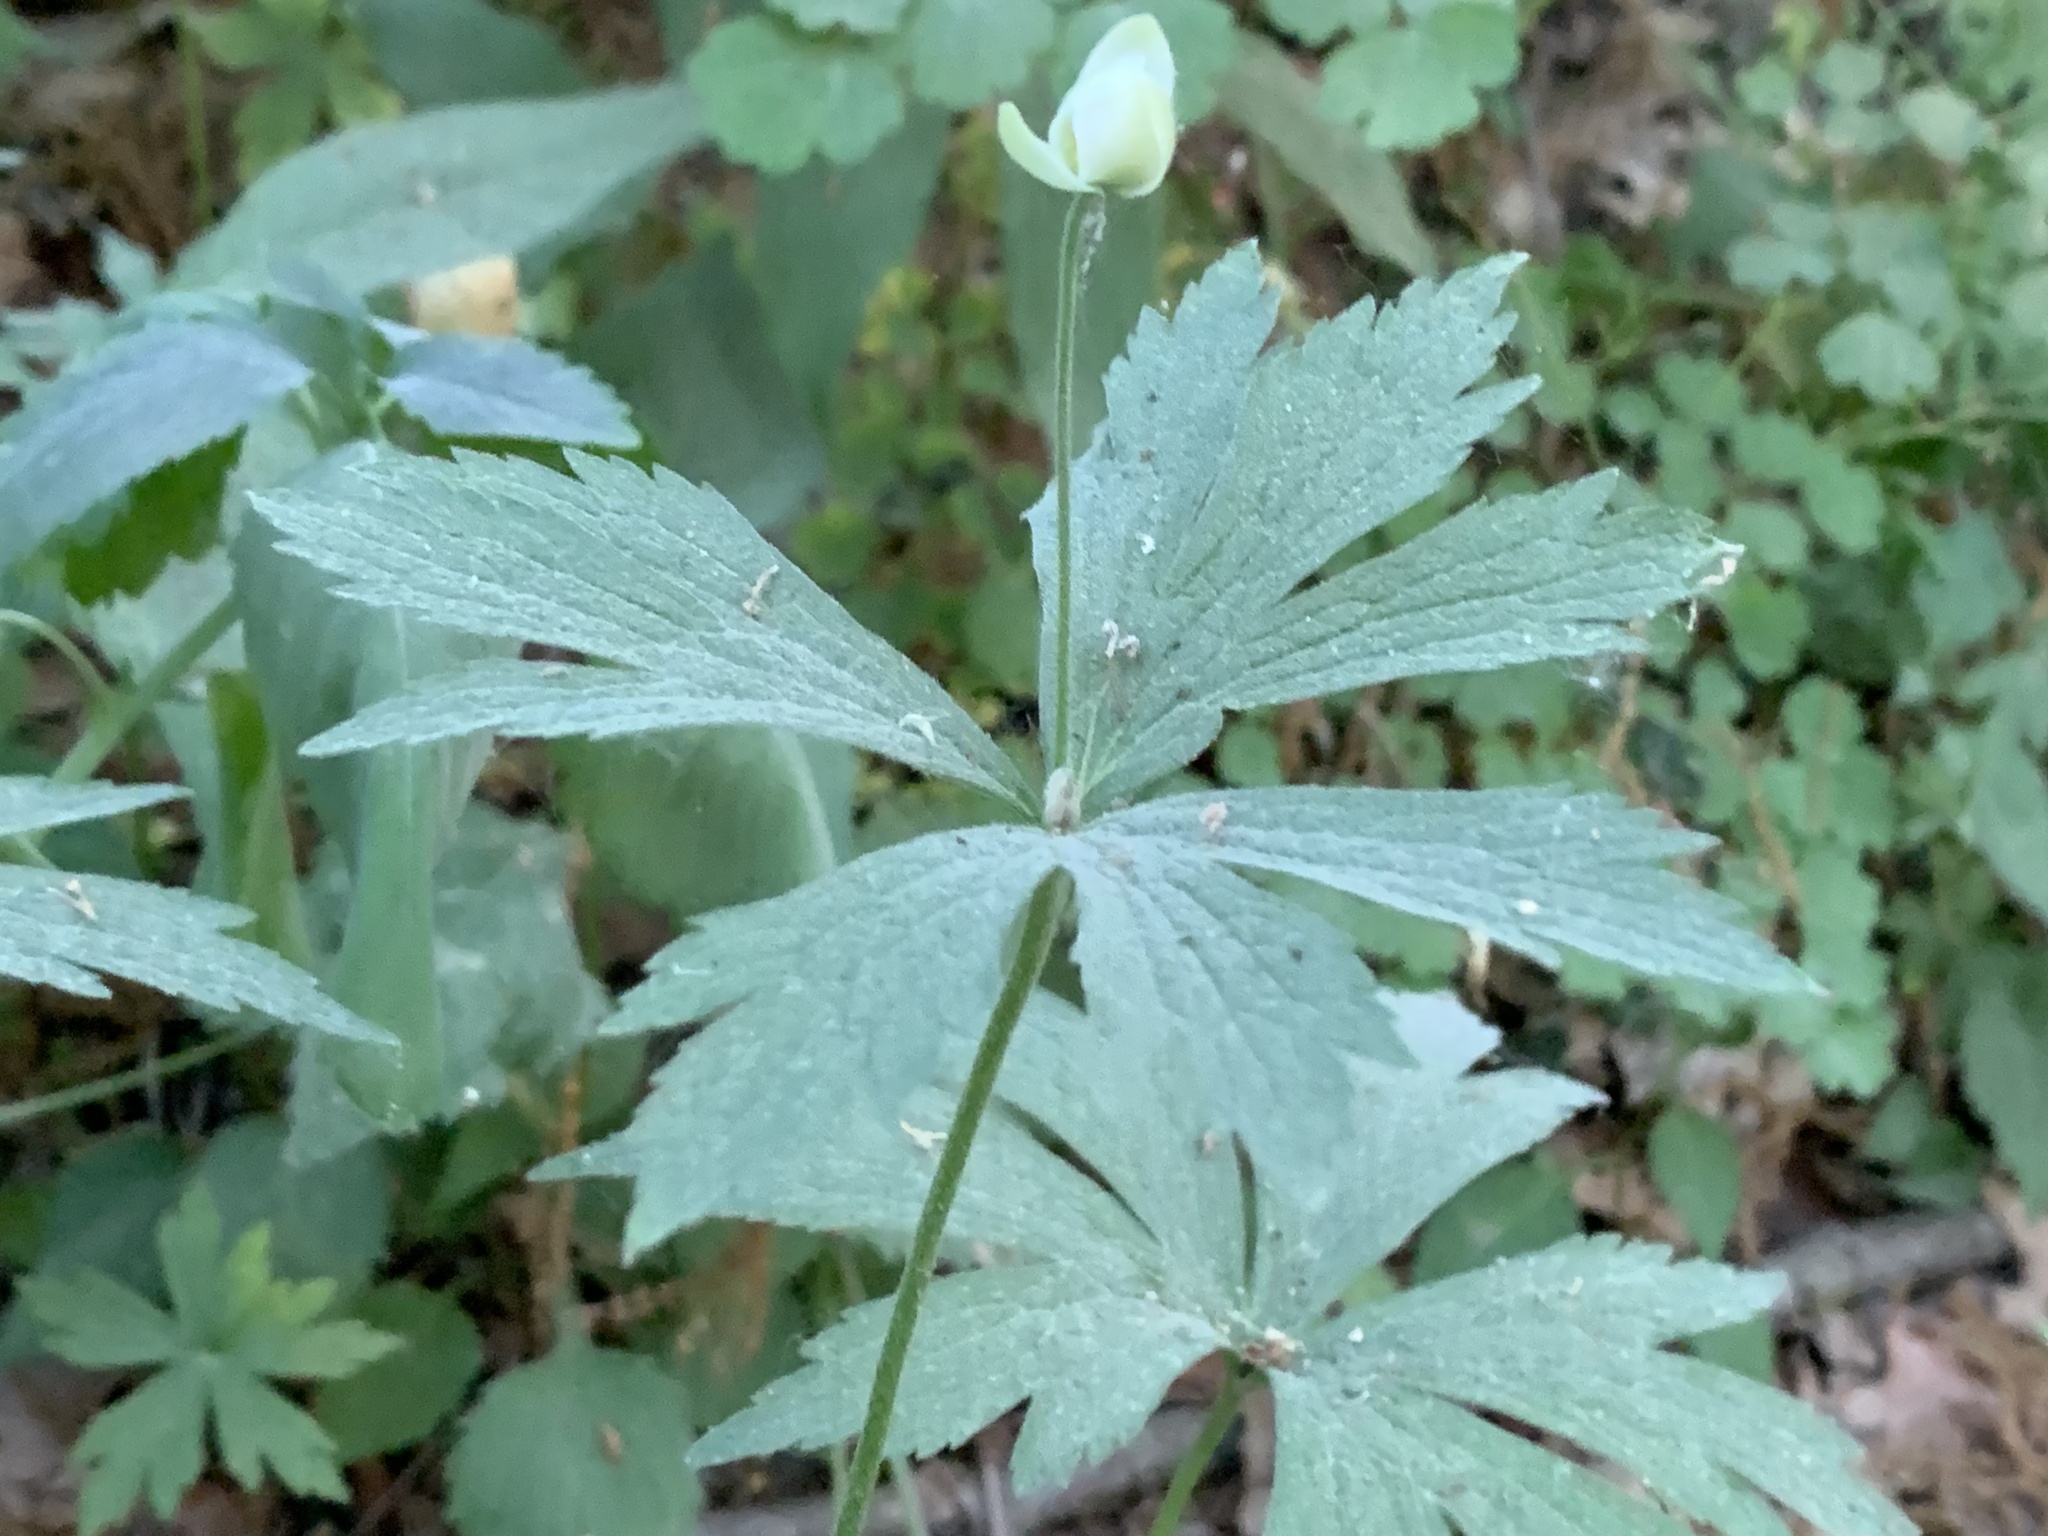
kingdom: Plantae
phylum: Tracheophyta
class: Magnoliopsida
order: Ranunculales
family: Ranunculaceae
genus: Anemonastrum
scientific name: Anemonastrum canadense
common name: Canada anemone
